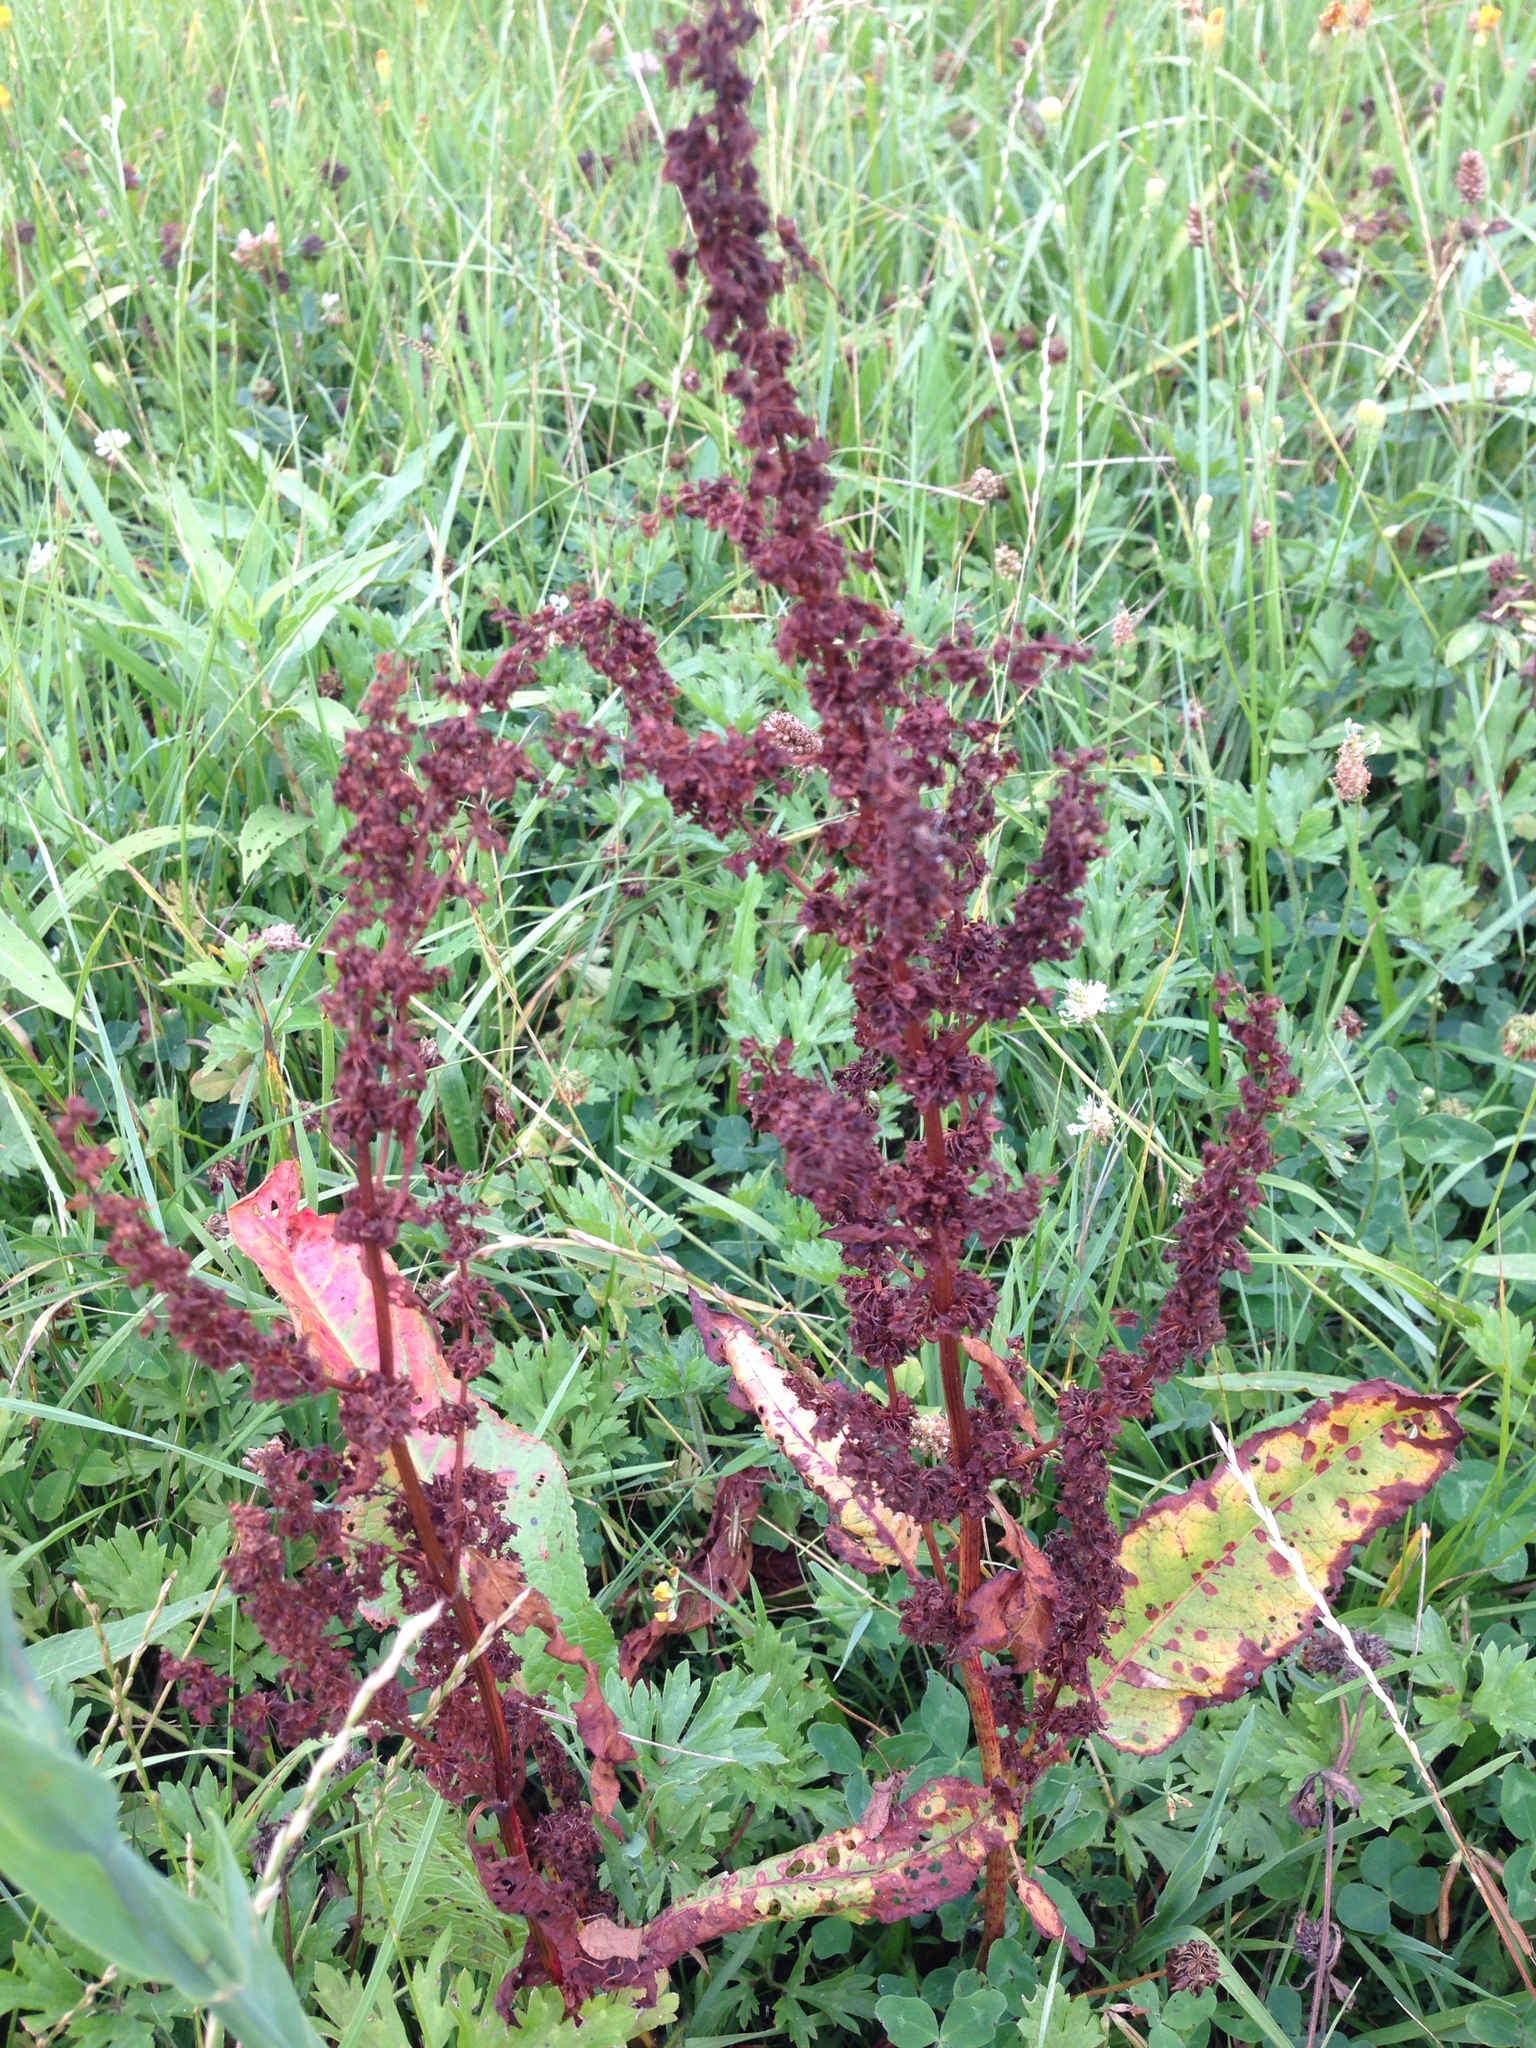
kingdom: Plantae
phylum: Tracheophyta
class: Magnoliopsida
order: Caryophyllales
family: Polygonaceae
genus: Rumex
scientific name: Rumex obtusifolius
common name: Bitter dock
